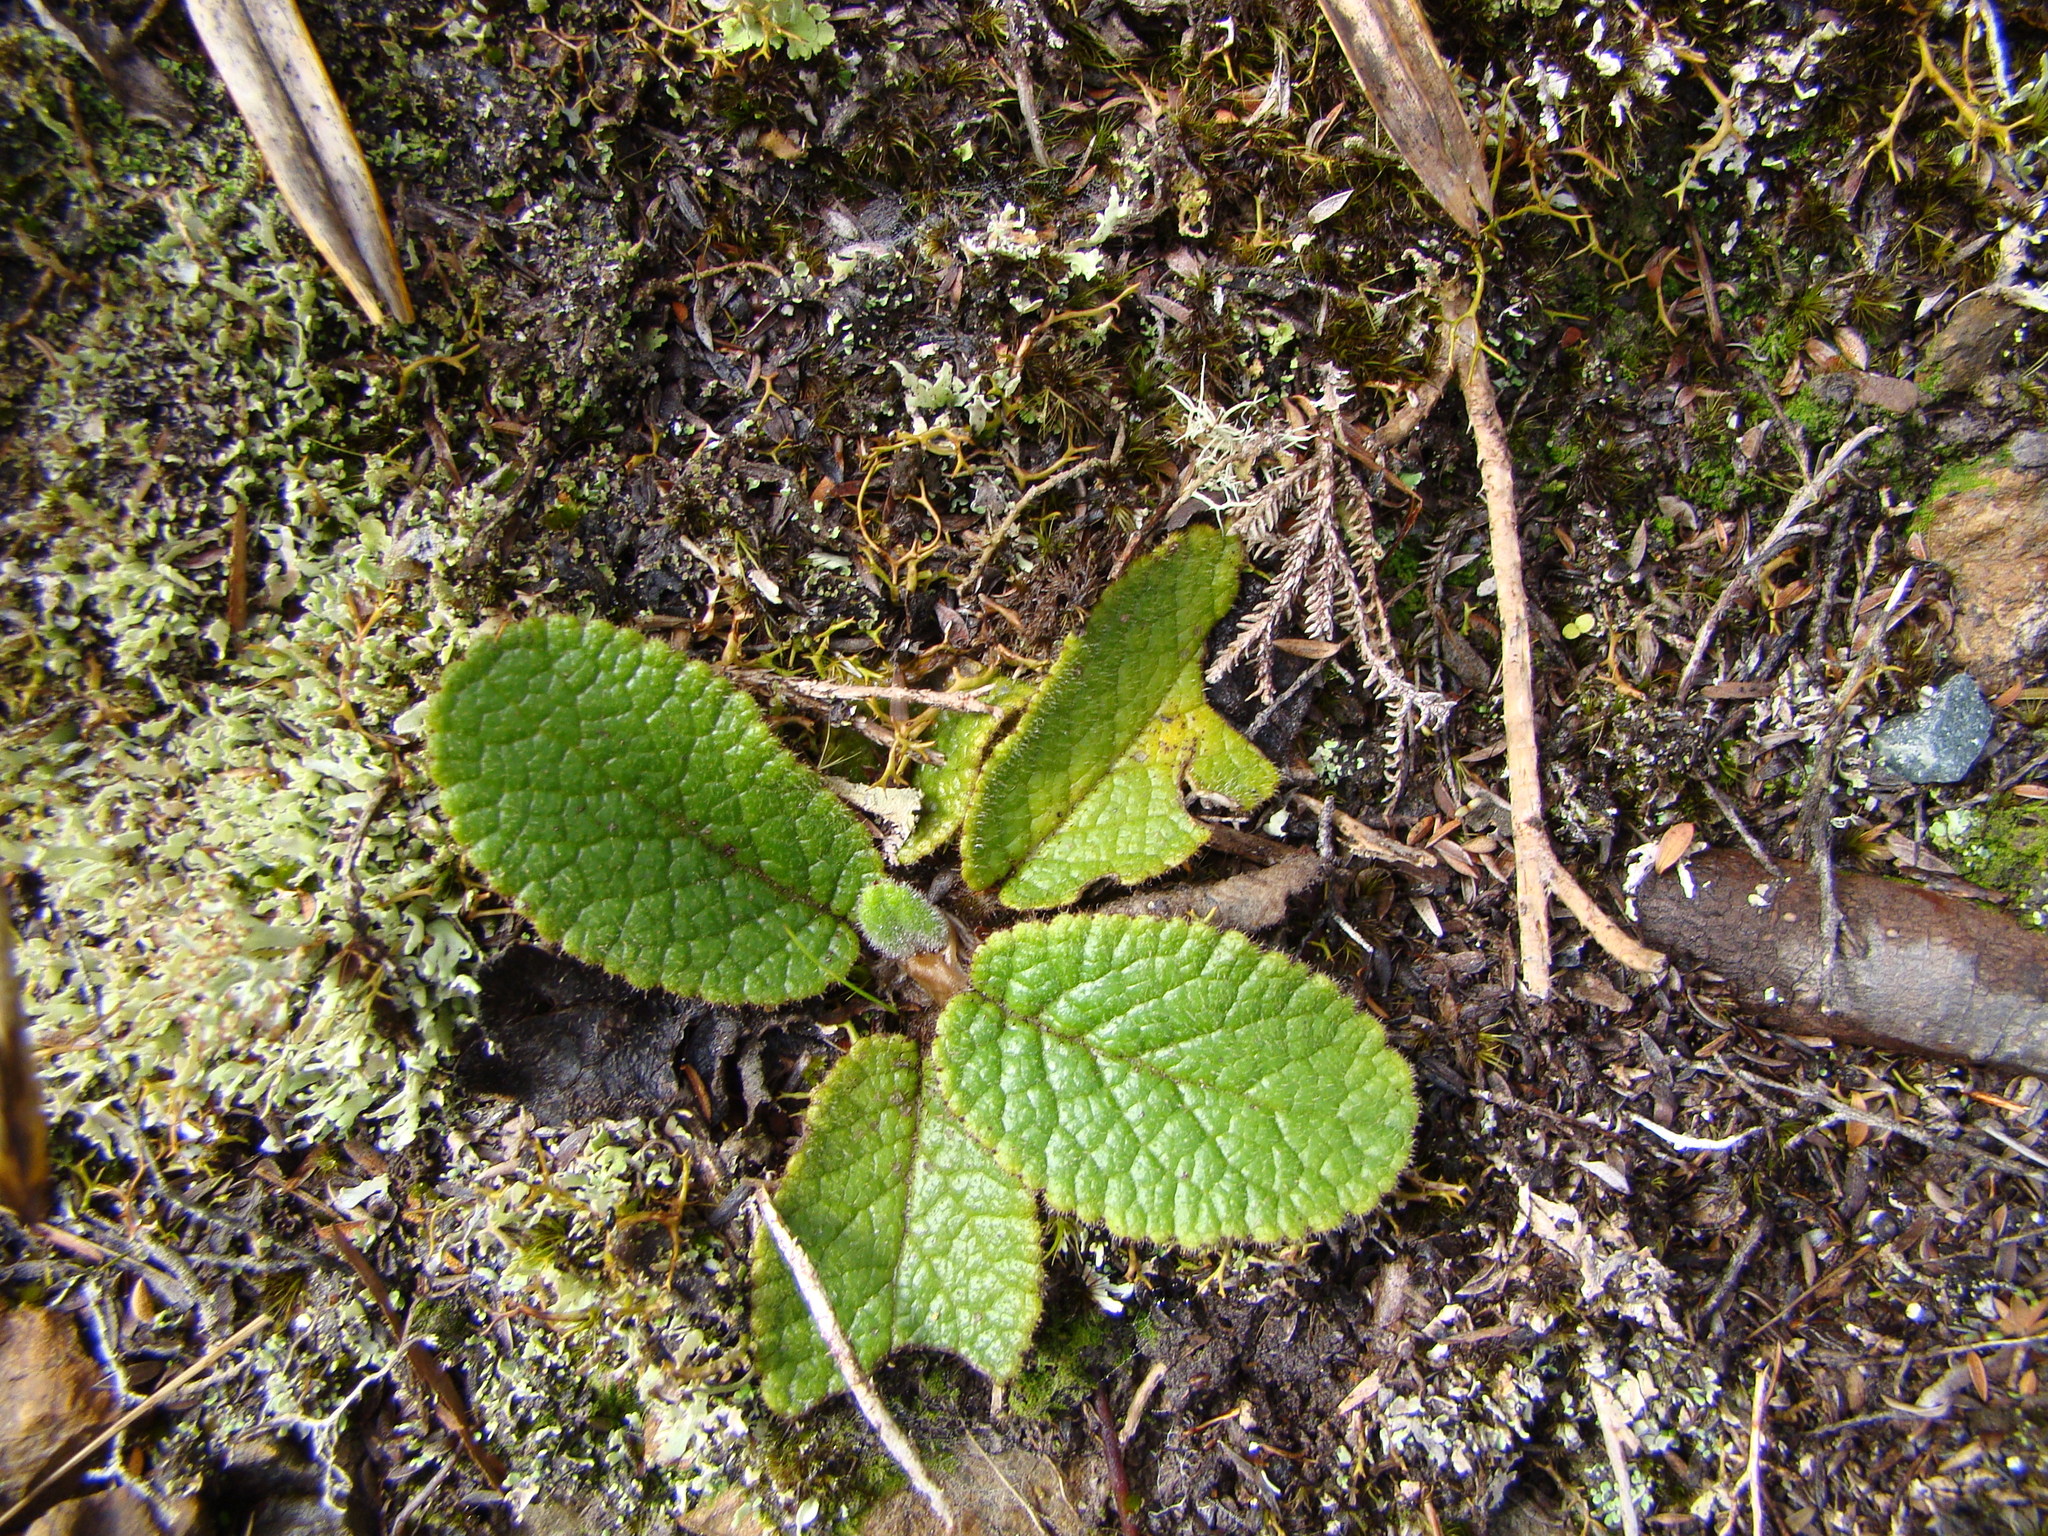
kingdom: Plantae
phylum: Tracheophyta
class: Magnoliopsida
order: Asterales
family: Asteraceae
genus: Brachyglottis
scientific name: Brachyglottis lagopus
